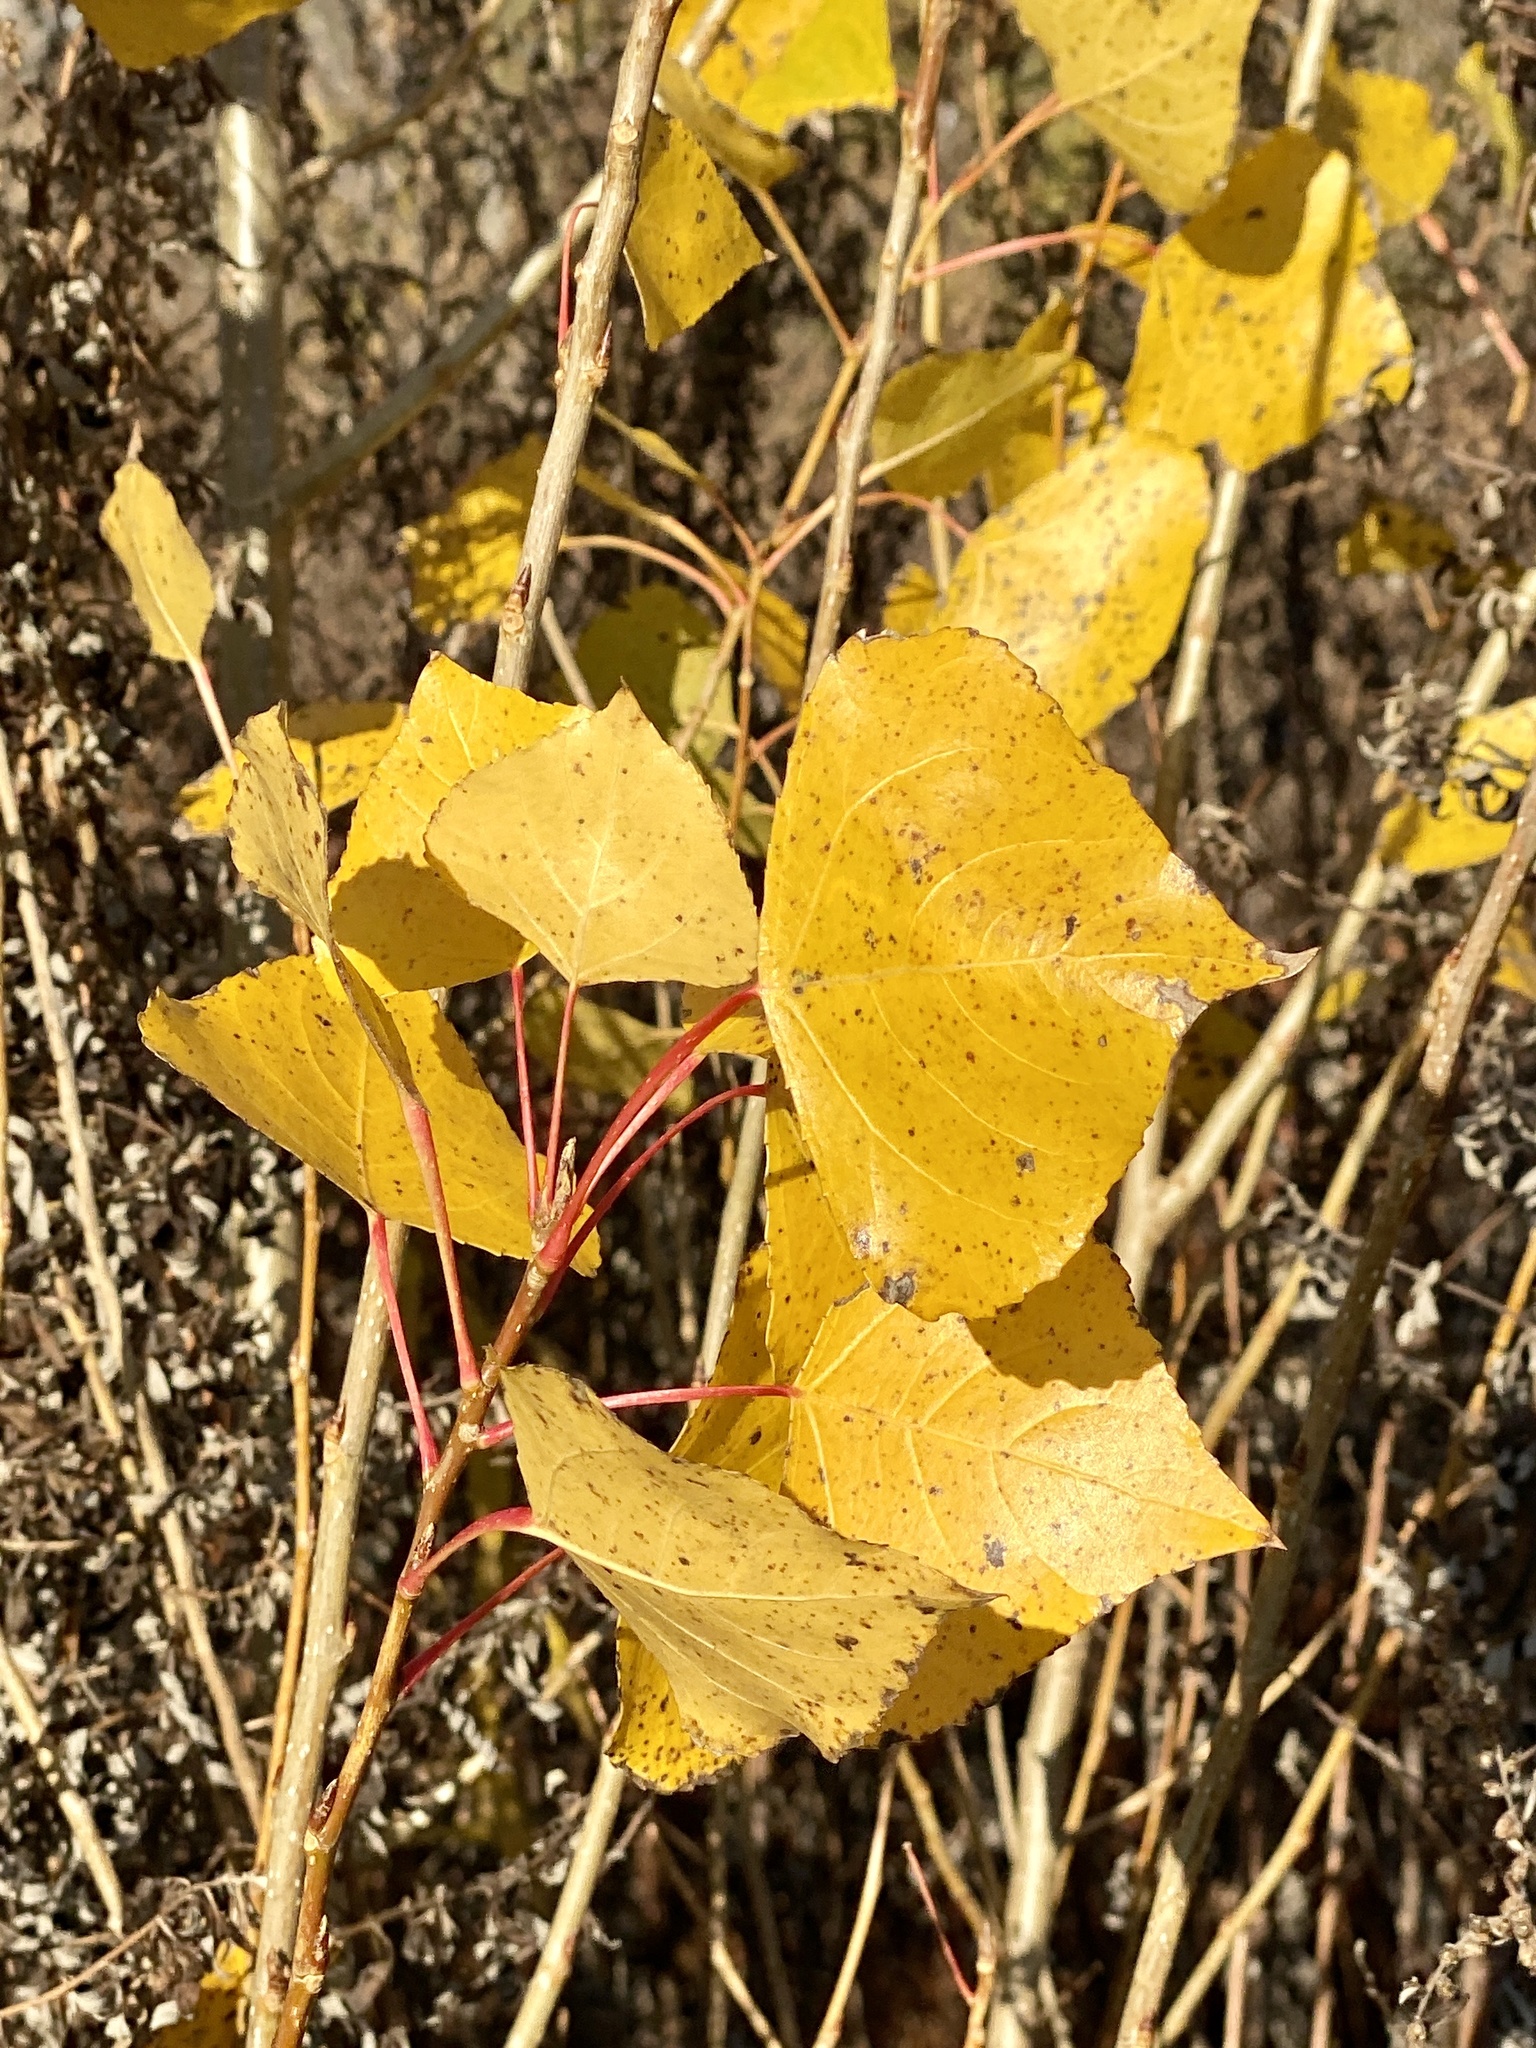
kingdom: Plantae
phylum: Tracheophyta
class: Magnoliopsida
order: Malpighiales
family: Salicaceae
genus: Populus
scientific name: Populus deltoides
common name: Eastern cottonwood
